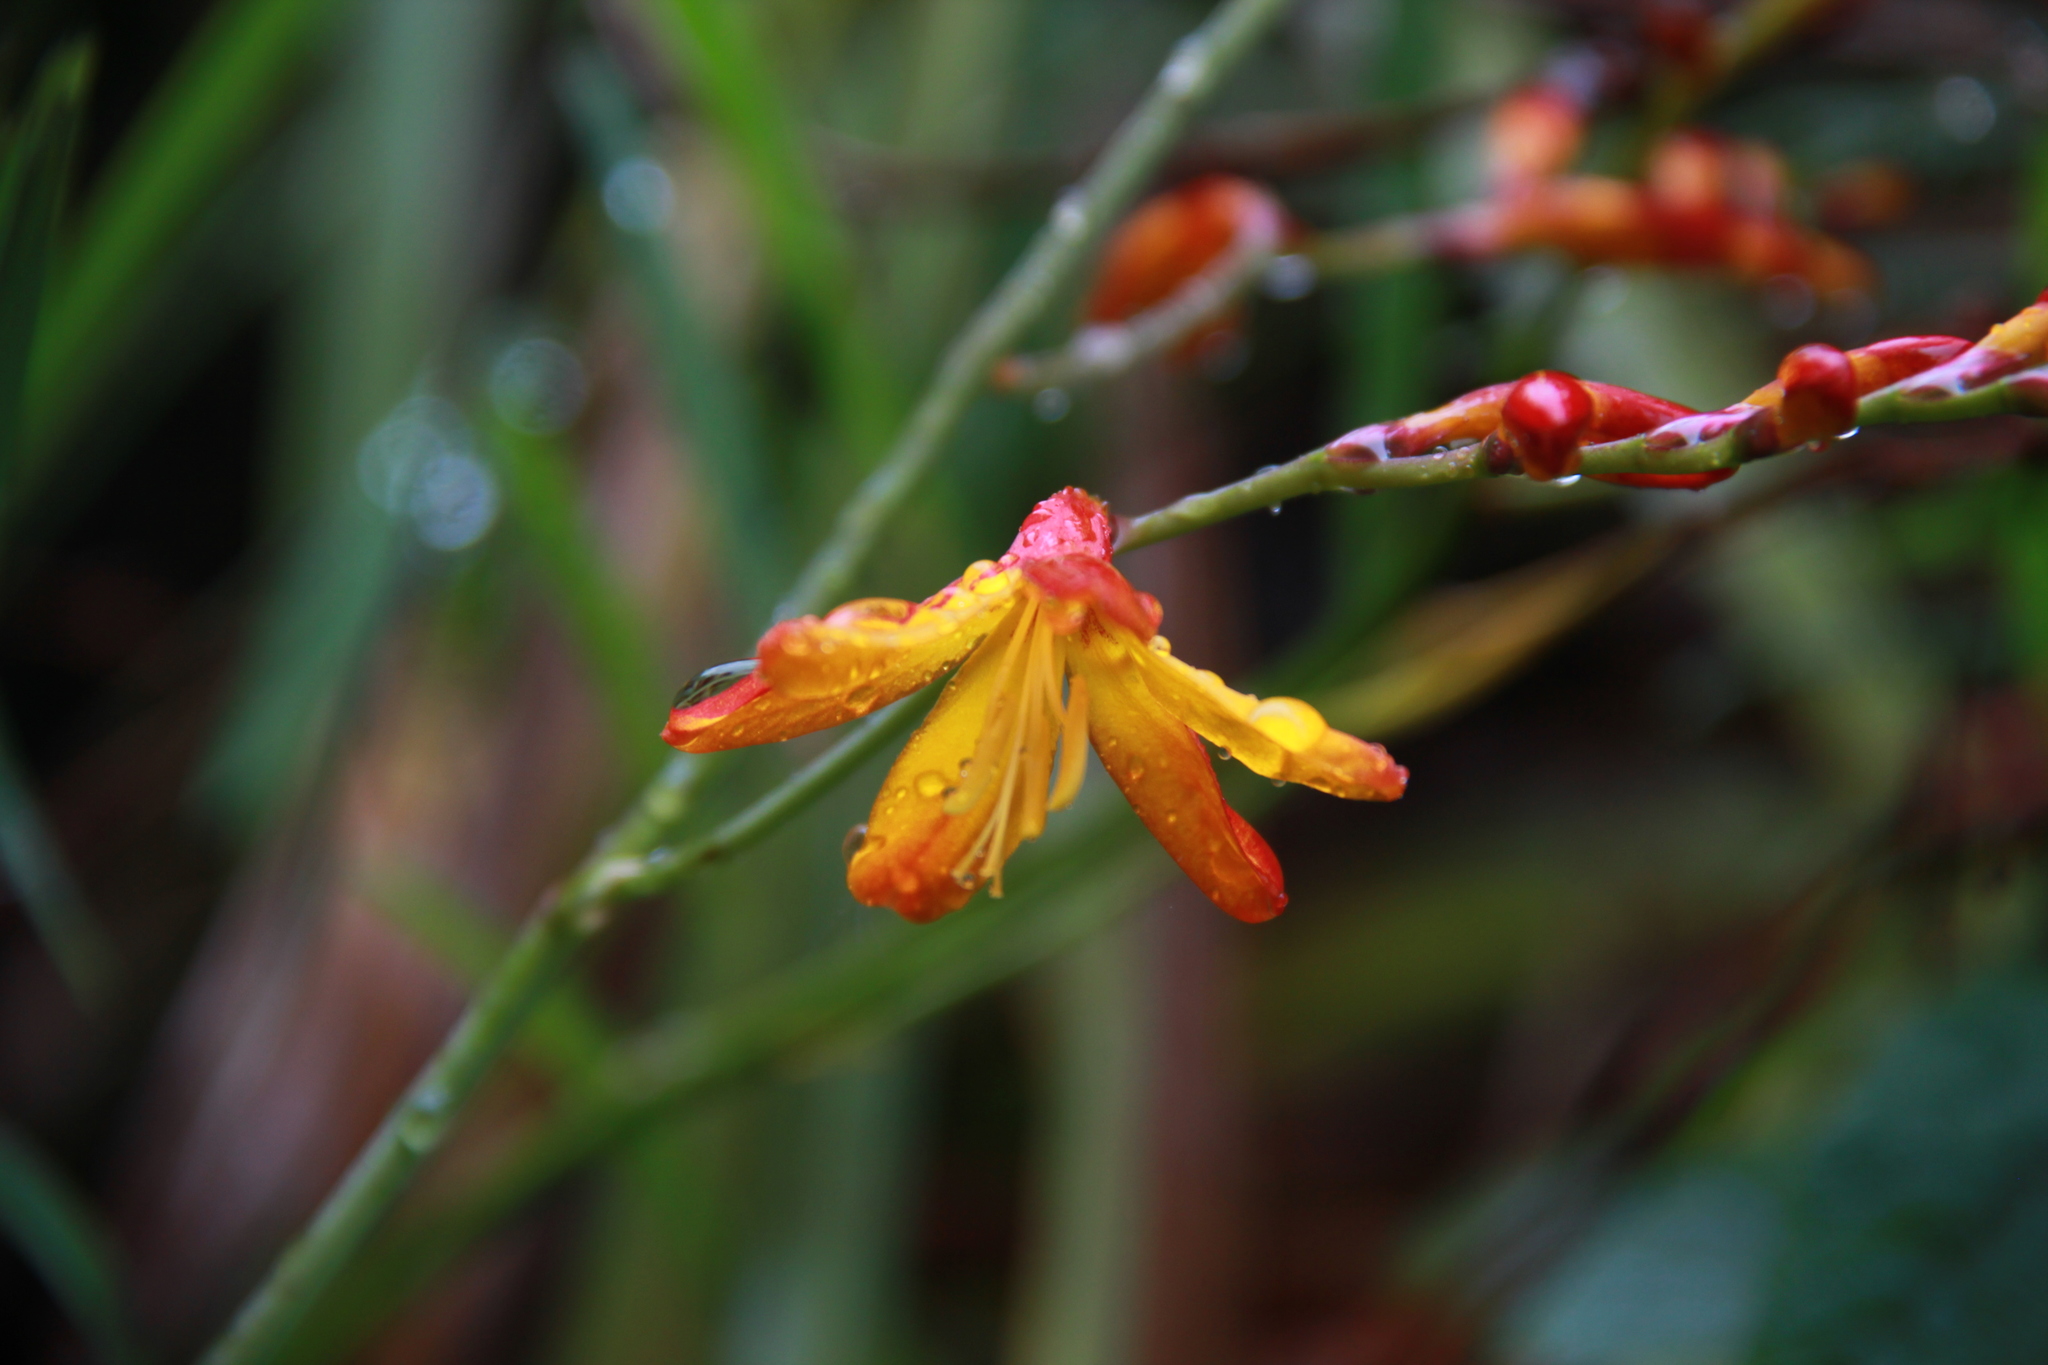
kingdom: Plantae
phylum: Tracheophyta
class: Liliopsida
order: Asparagales
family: Iridaceae
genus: Crocosmia
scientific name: Crocosmia crocosmiiflora
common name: Montbretia
